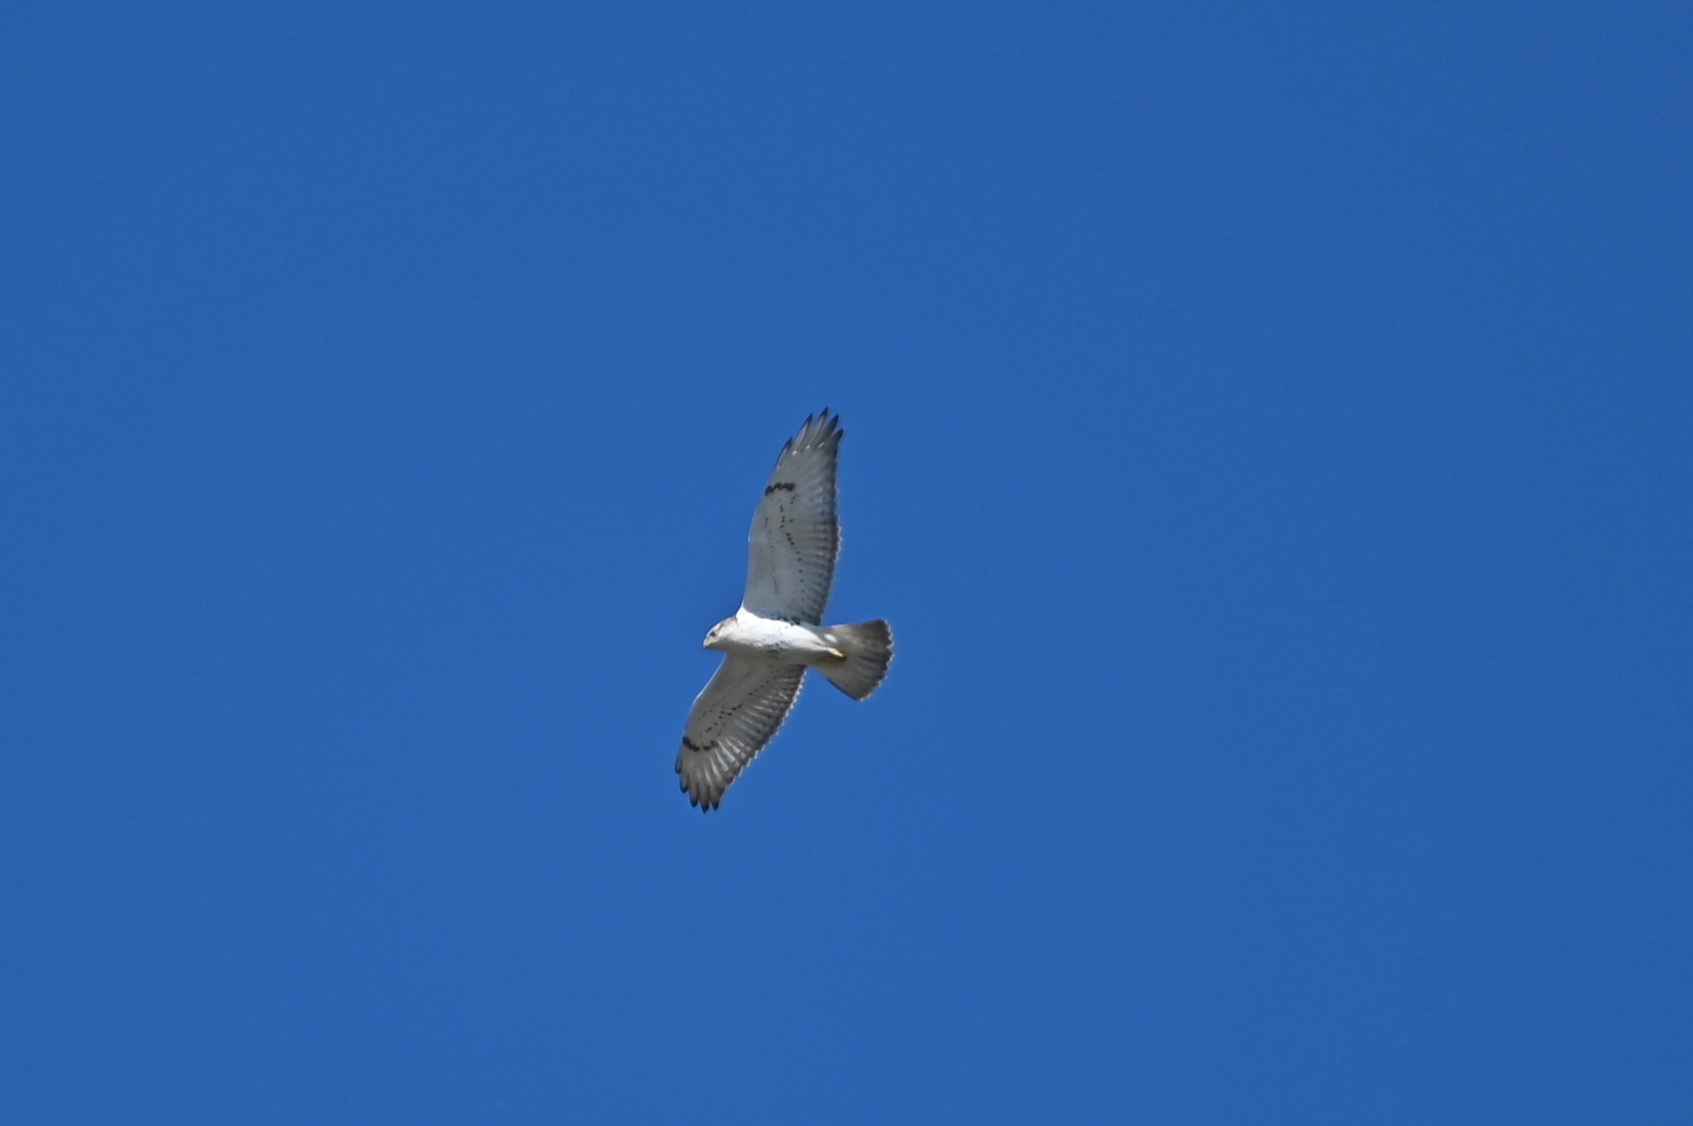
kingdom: Animalia
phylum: Chordata
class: Aves
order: Accipitriformes
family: Accipitridae
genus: Buteo
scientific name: Buteo regalis
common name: Ferruginous hawk
